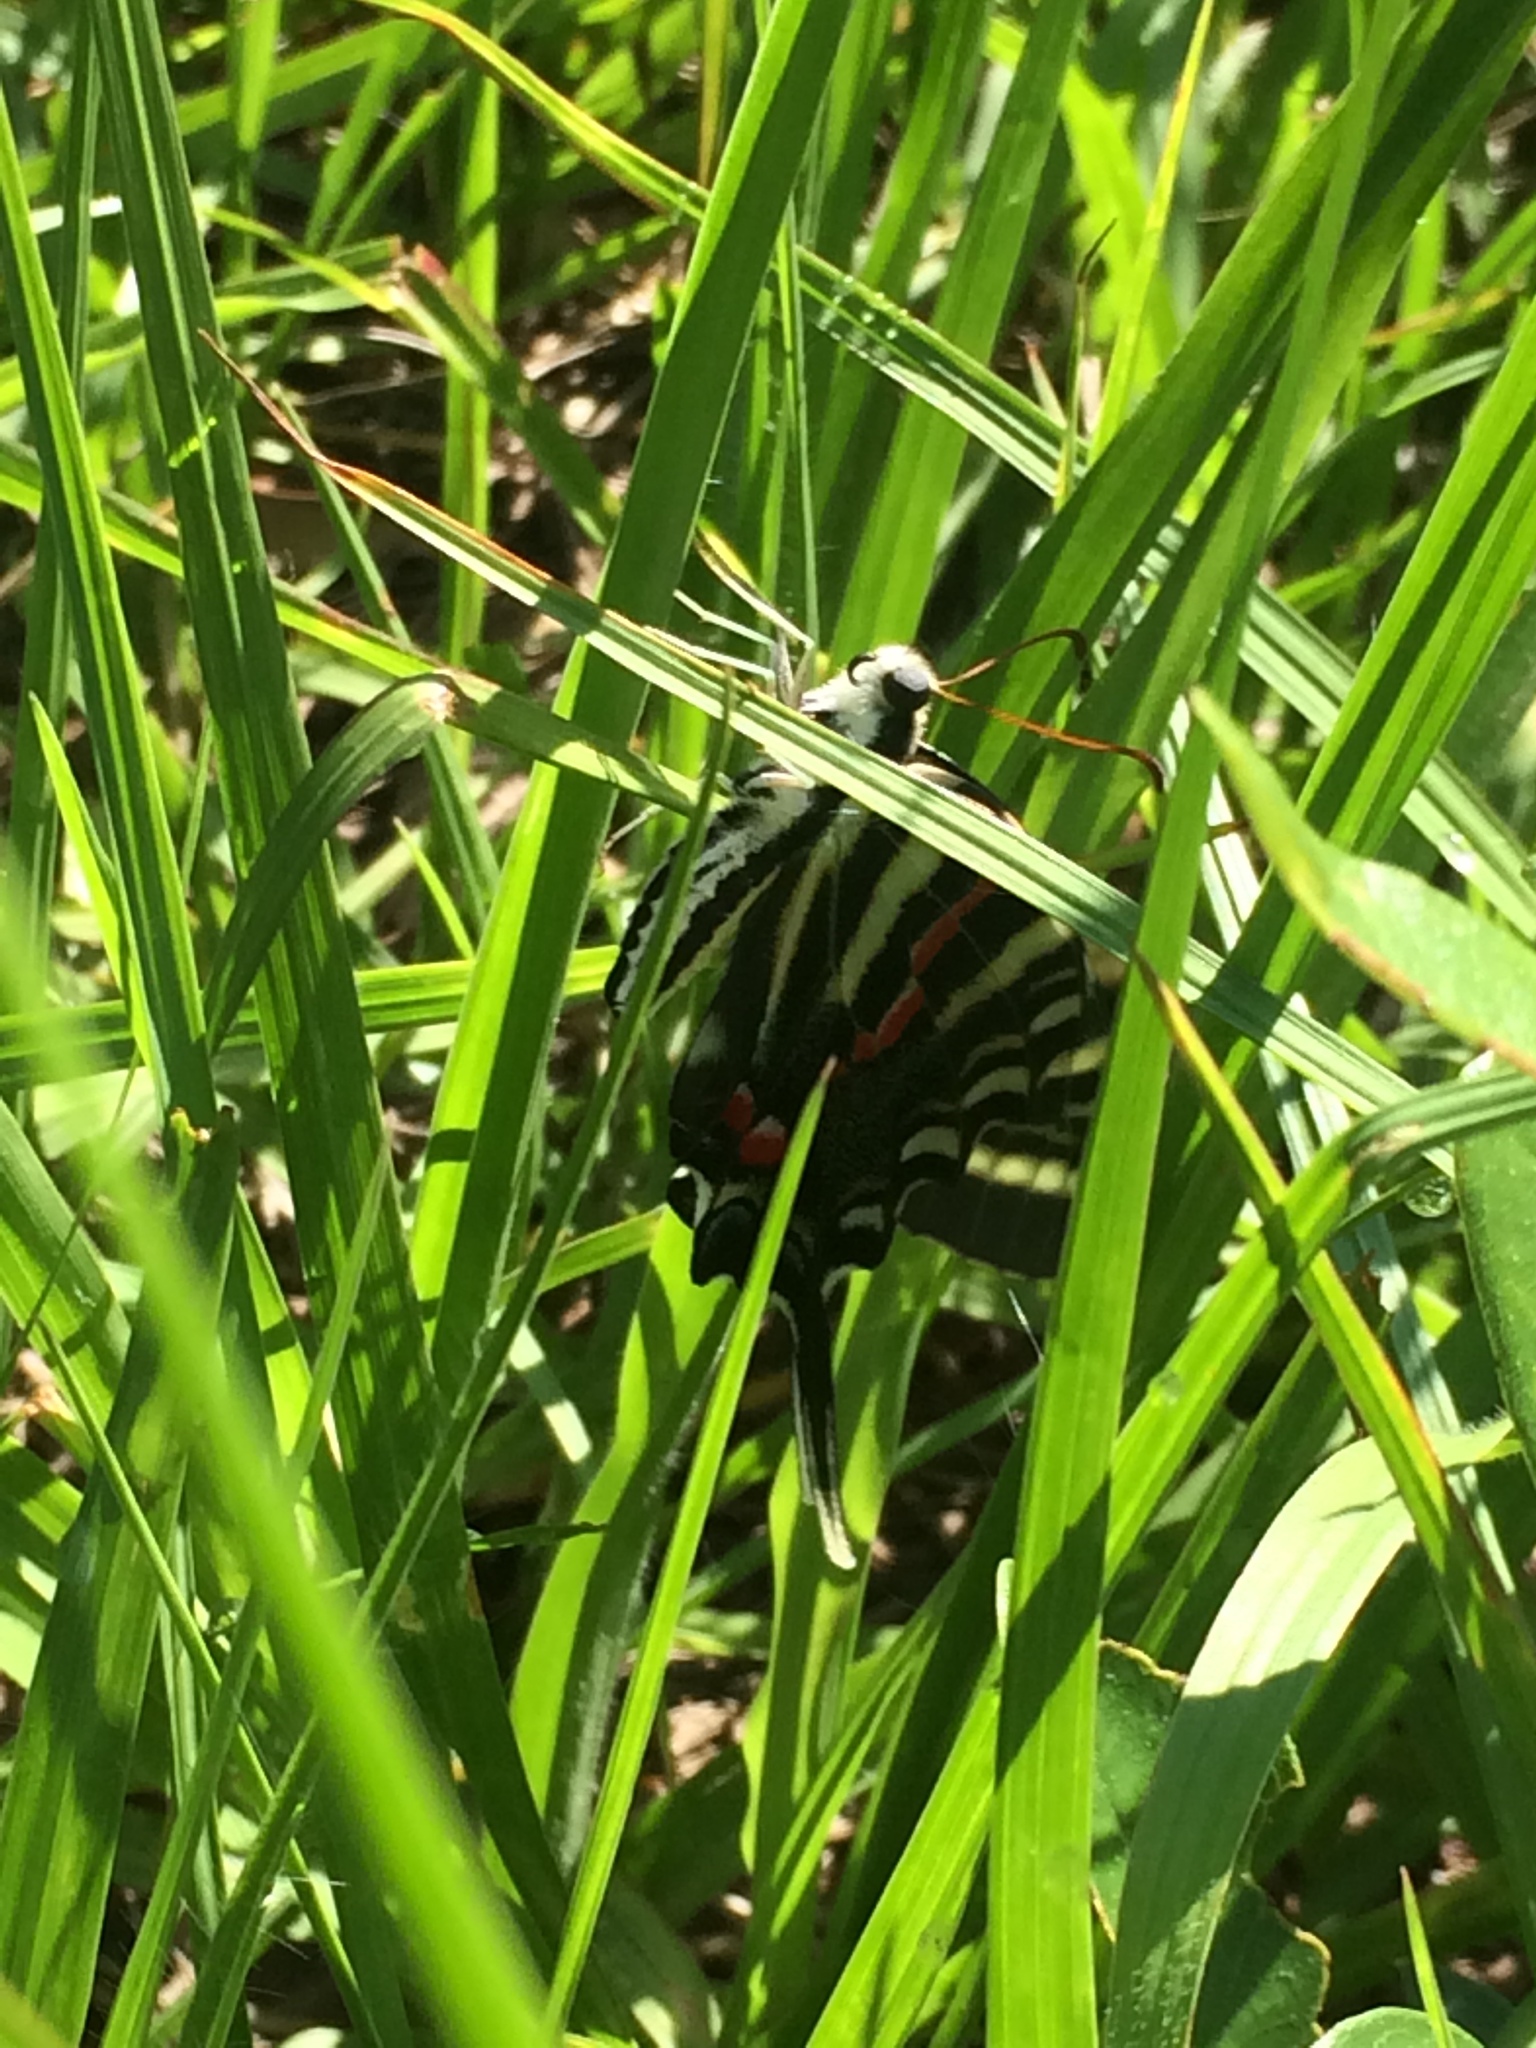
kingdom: Animalia
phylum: Arthropoda
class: Insecta
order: Lepidoptera
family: Papilionidae
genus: Protographium
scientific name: Protographium marcellus
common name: Zebra swallowtail
